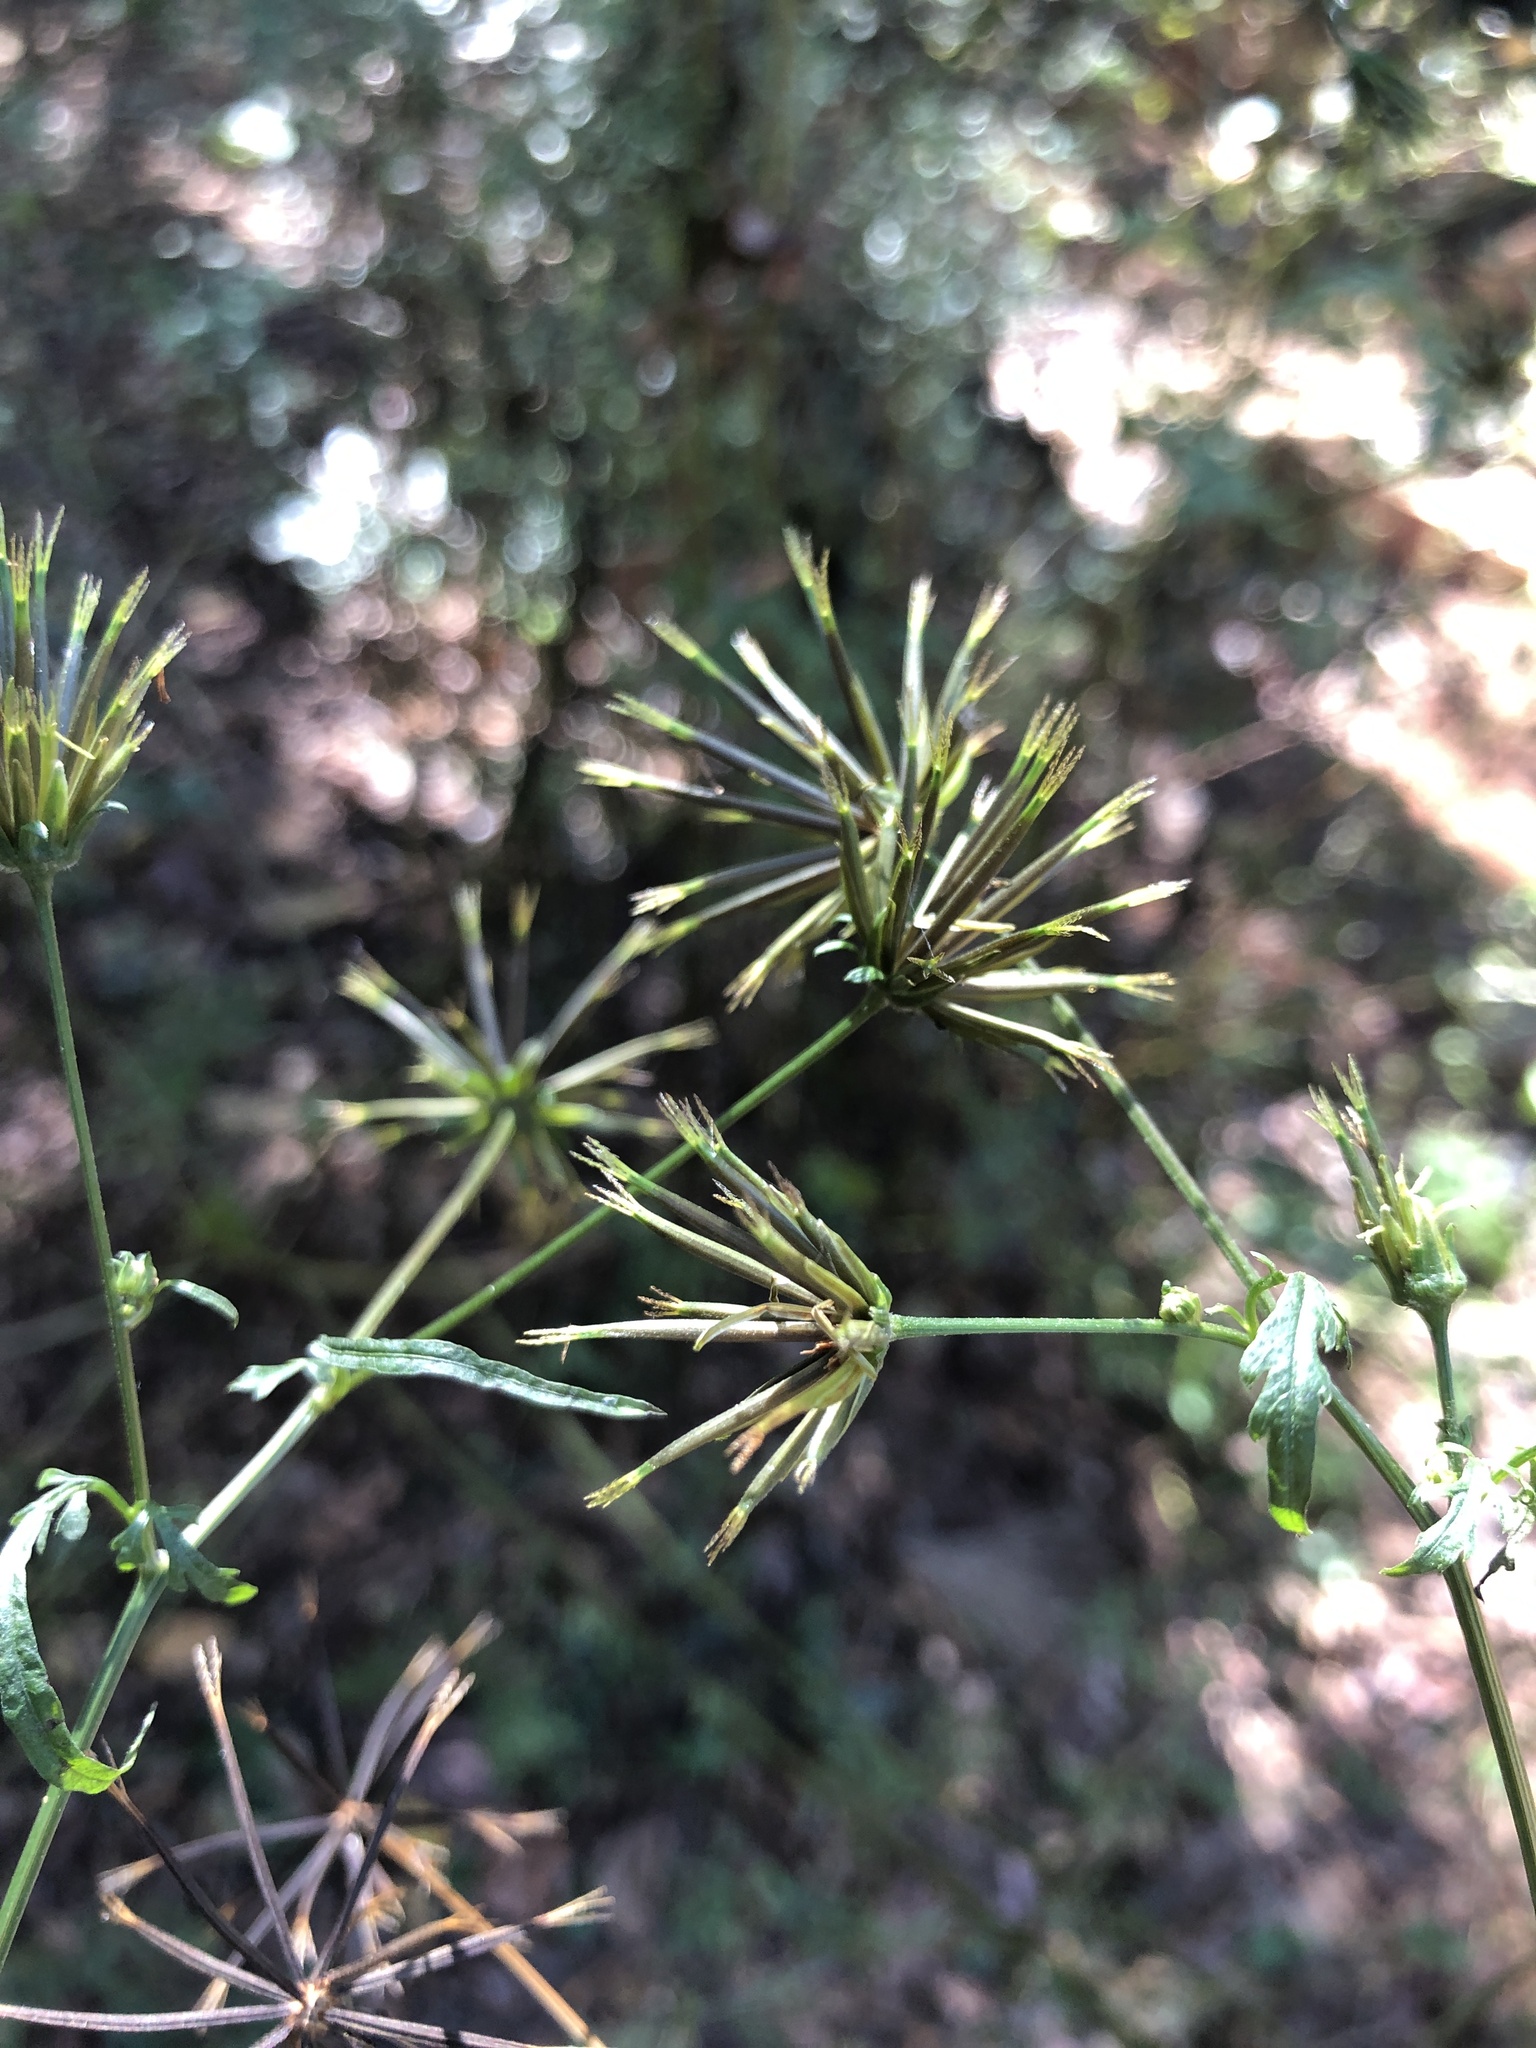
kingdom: Plantae
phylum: Tracheophyta
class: Magnoliopsida
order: Asterales
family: Asteraceae
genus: Bidens
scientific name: Bidens bipinnata
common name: Spanish-needles
